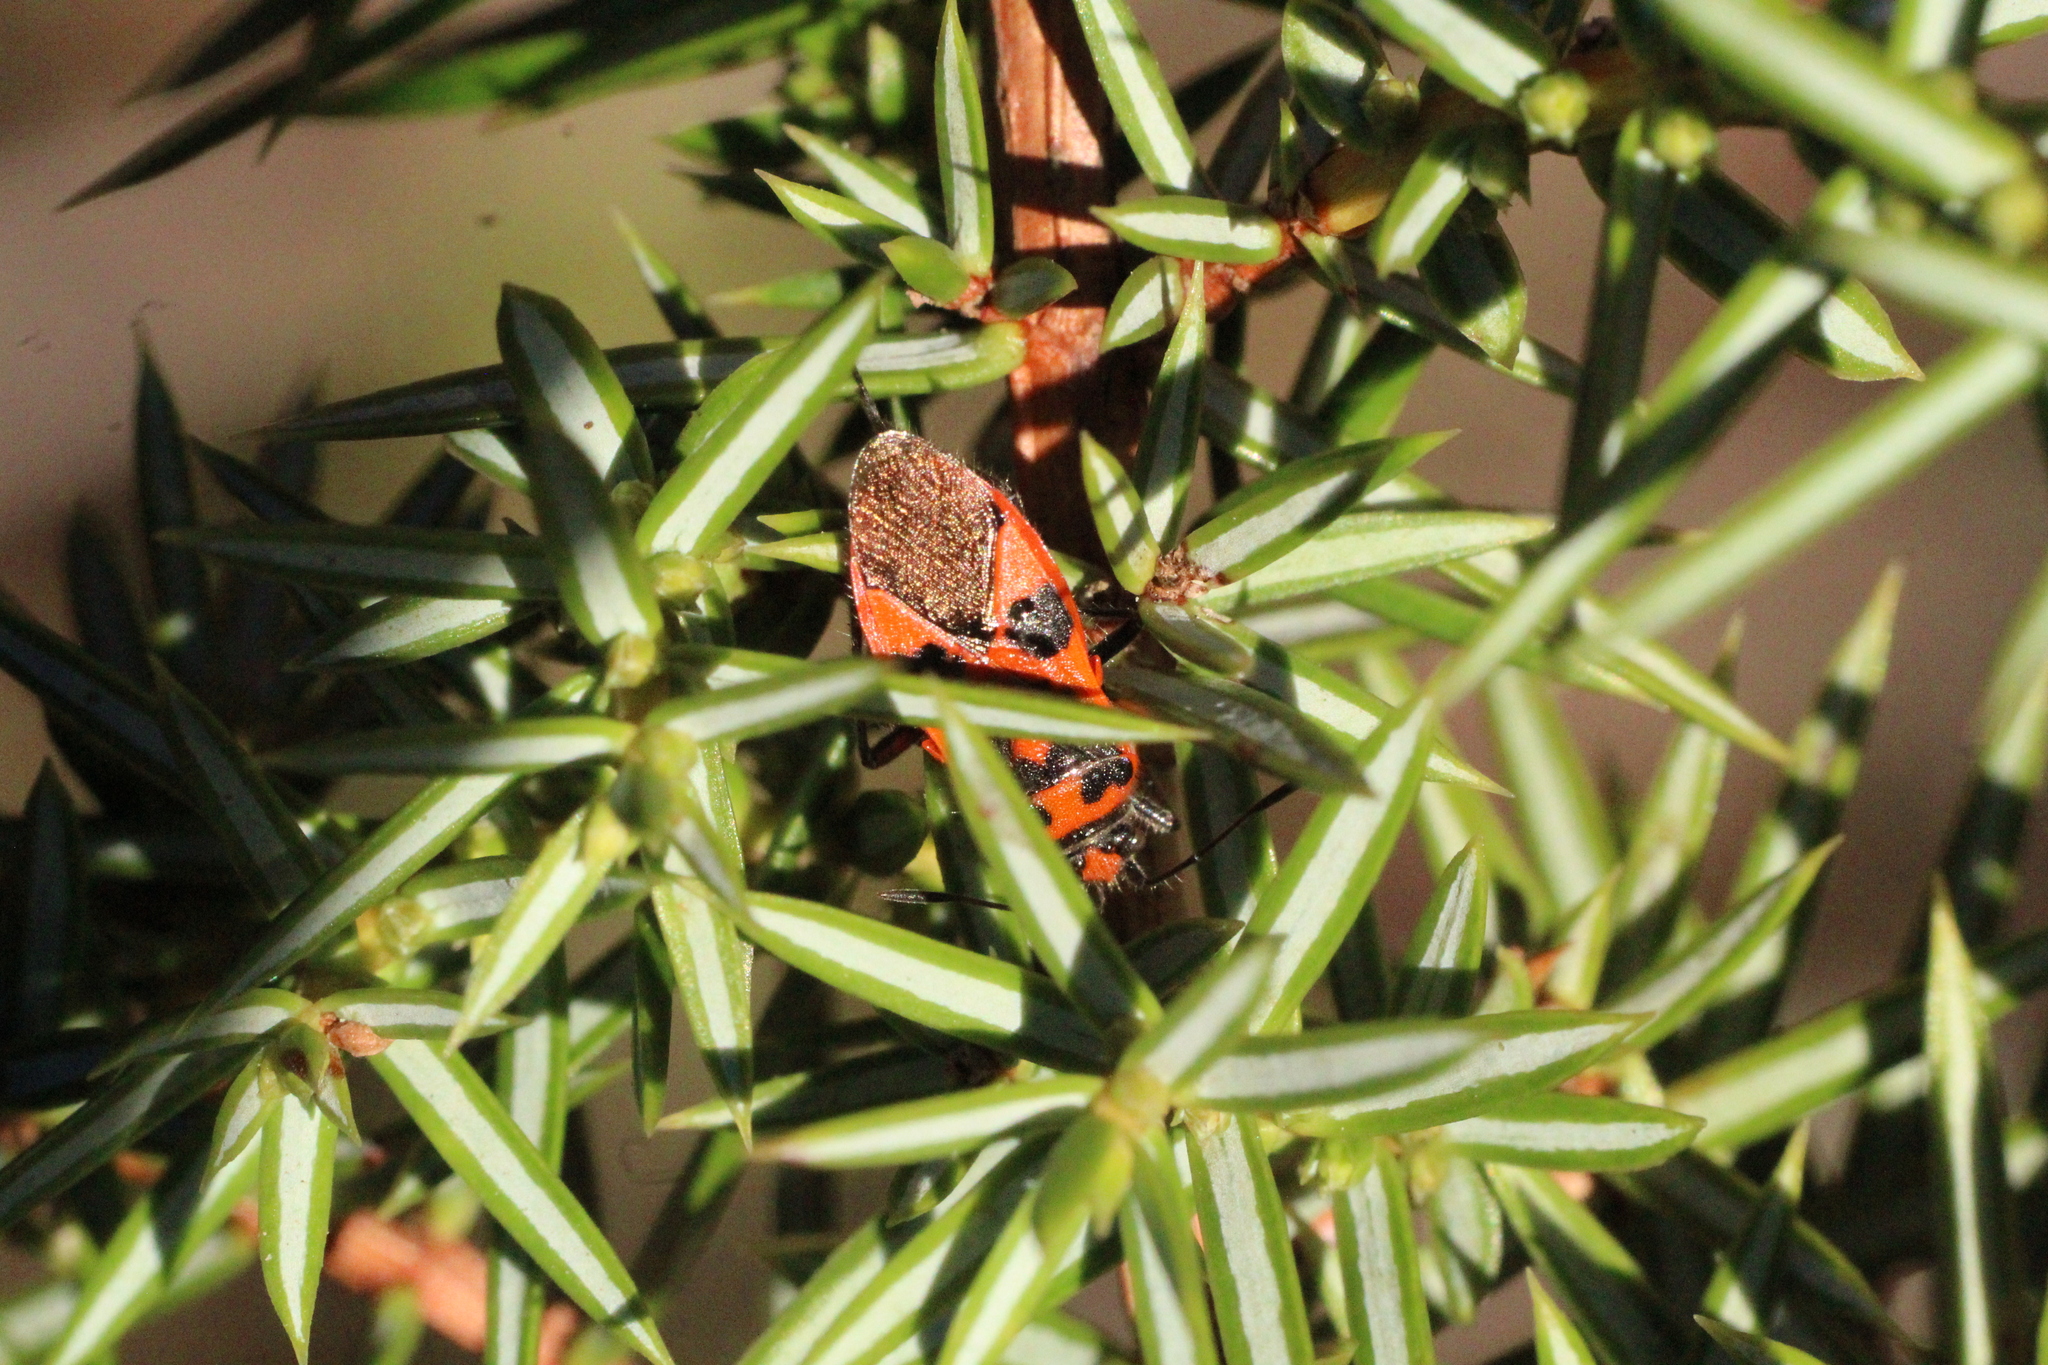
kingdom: Animalia
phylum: Arthropoda
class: Insecta
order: Hemiptera
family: Rhopalidae
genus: Corizus
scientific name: Corizus hyoscyami
